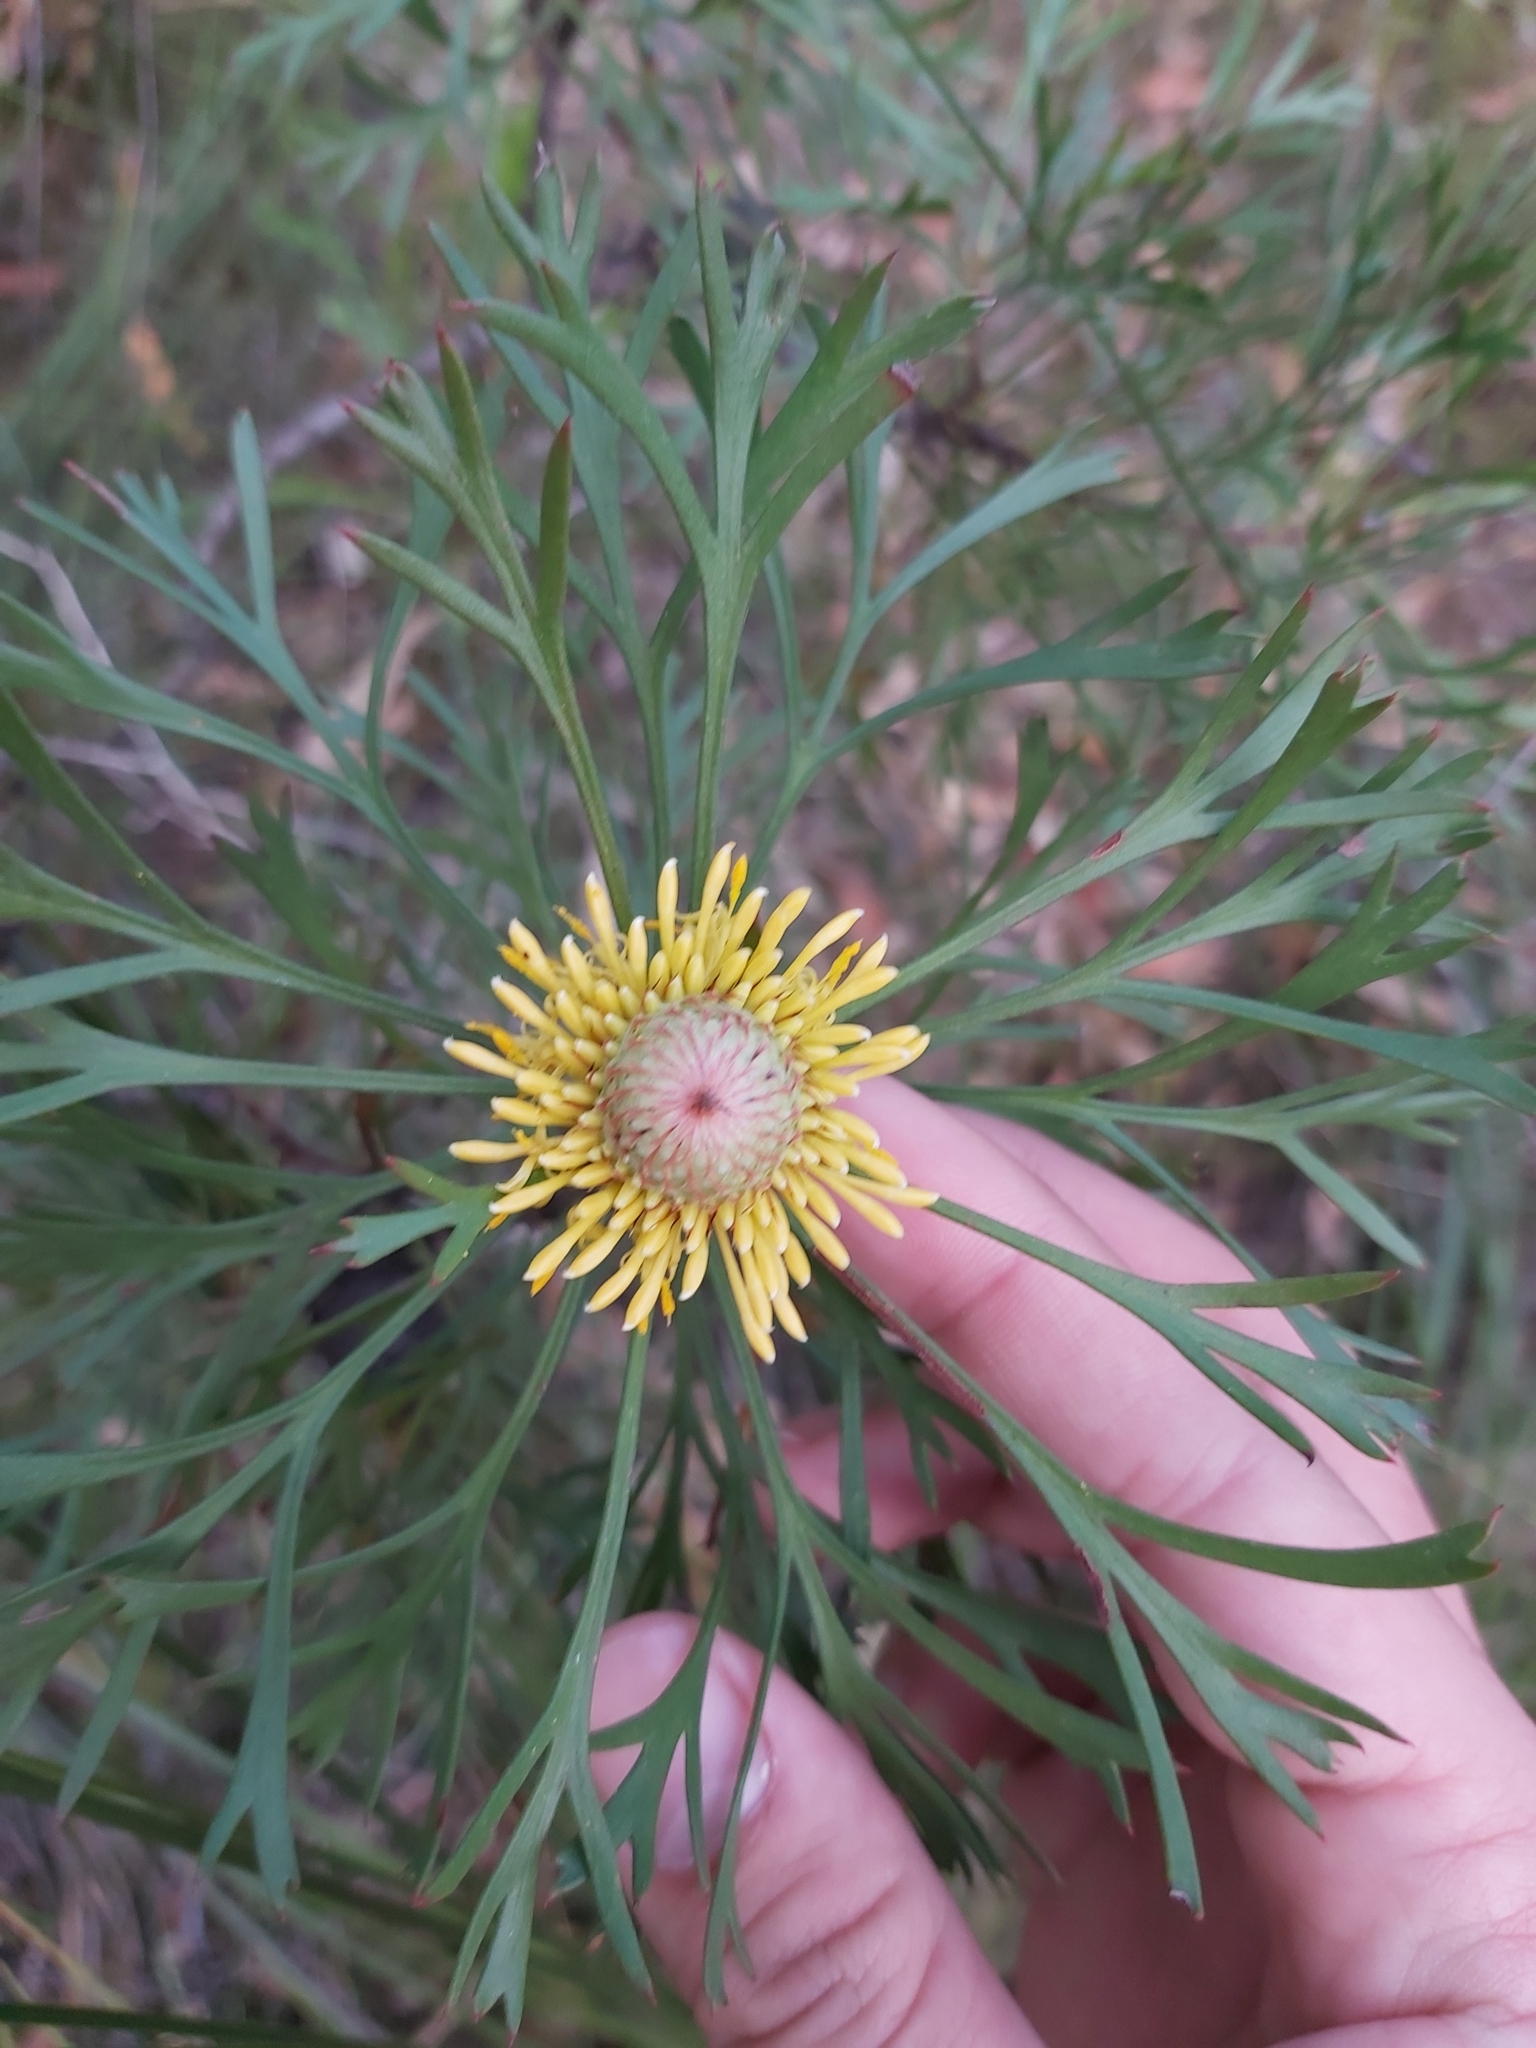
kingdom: Plantae
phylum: Tracheophyta
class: Magnoliopsida
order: Proteales
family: Proteaceae
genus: Isopogon
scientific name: Isopogon anemonifolius
